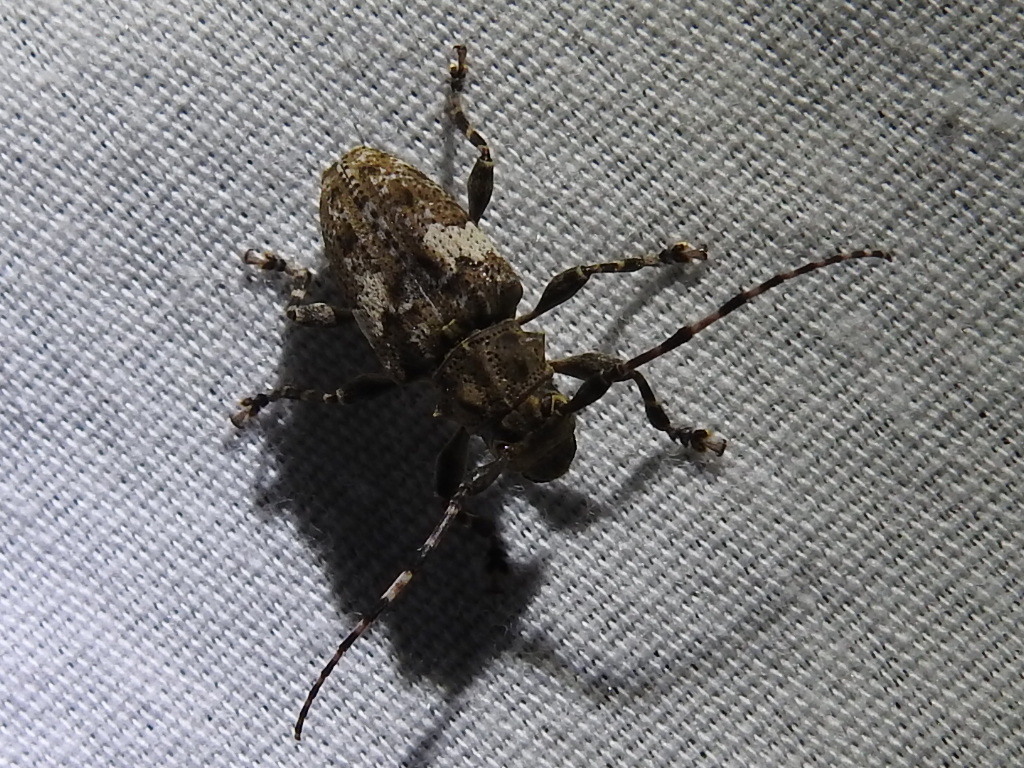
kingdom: Animalia
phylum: Arthropoda
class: Insecta
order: Coleoptera
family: Cerambycidae
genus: Acanthoderes
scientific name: Acanthoderes quadrigibba
